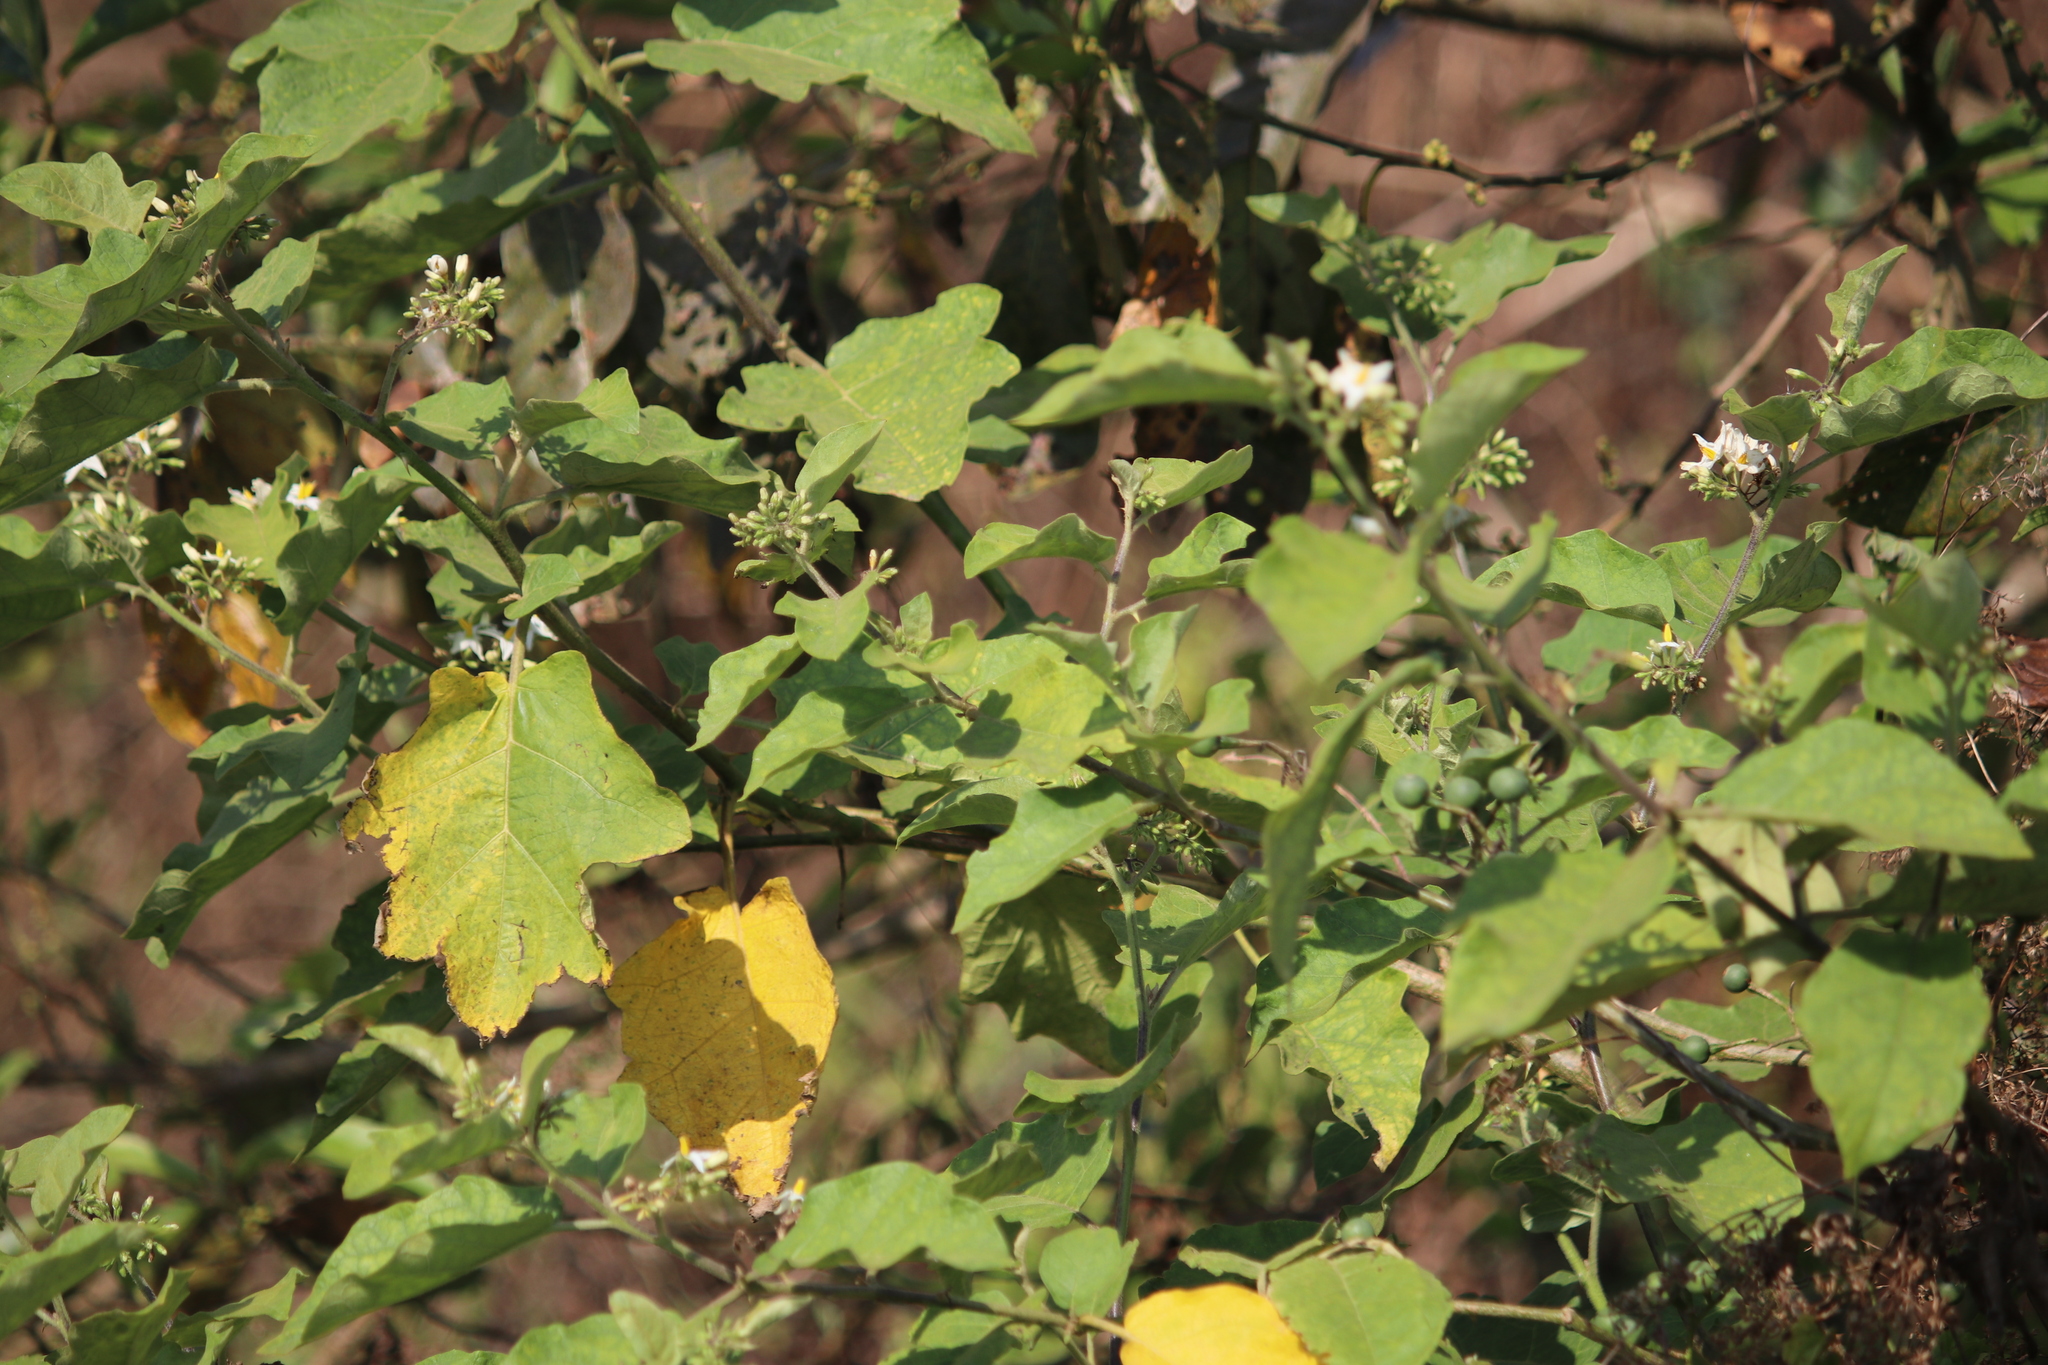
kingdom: Plantae
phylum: Tracheophyta
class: Magnoliopsida
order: Solanales
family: Solanaceae
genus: Solanum
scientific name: Solanum torvum
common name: Turkey berry
